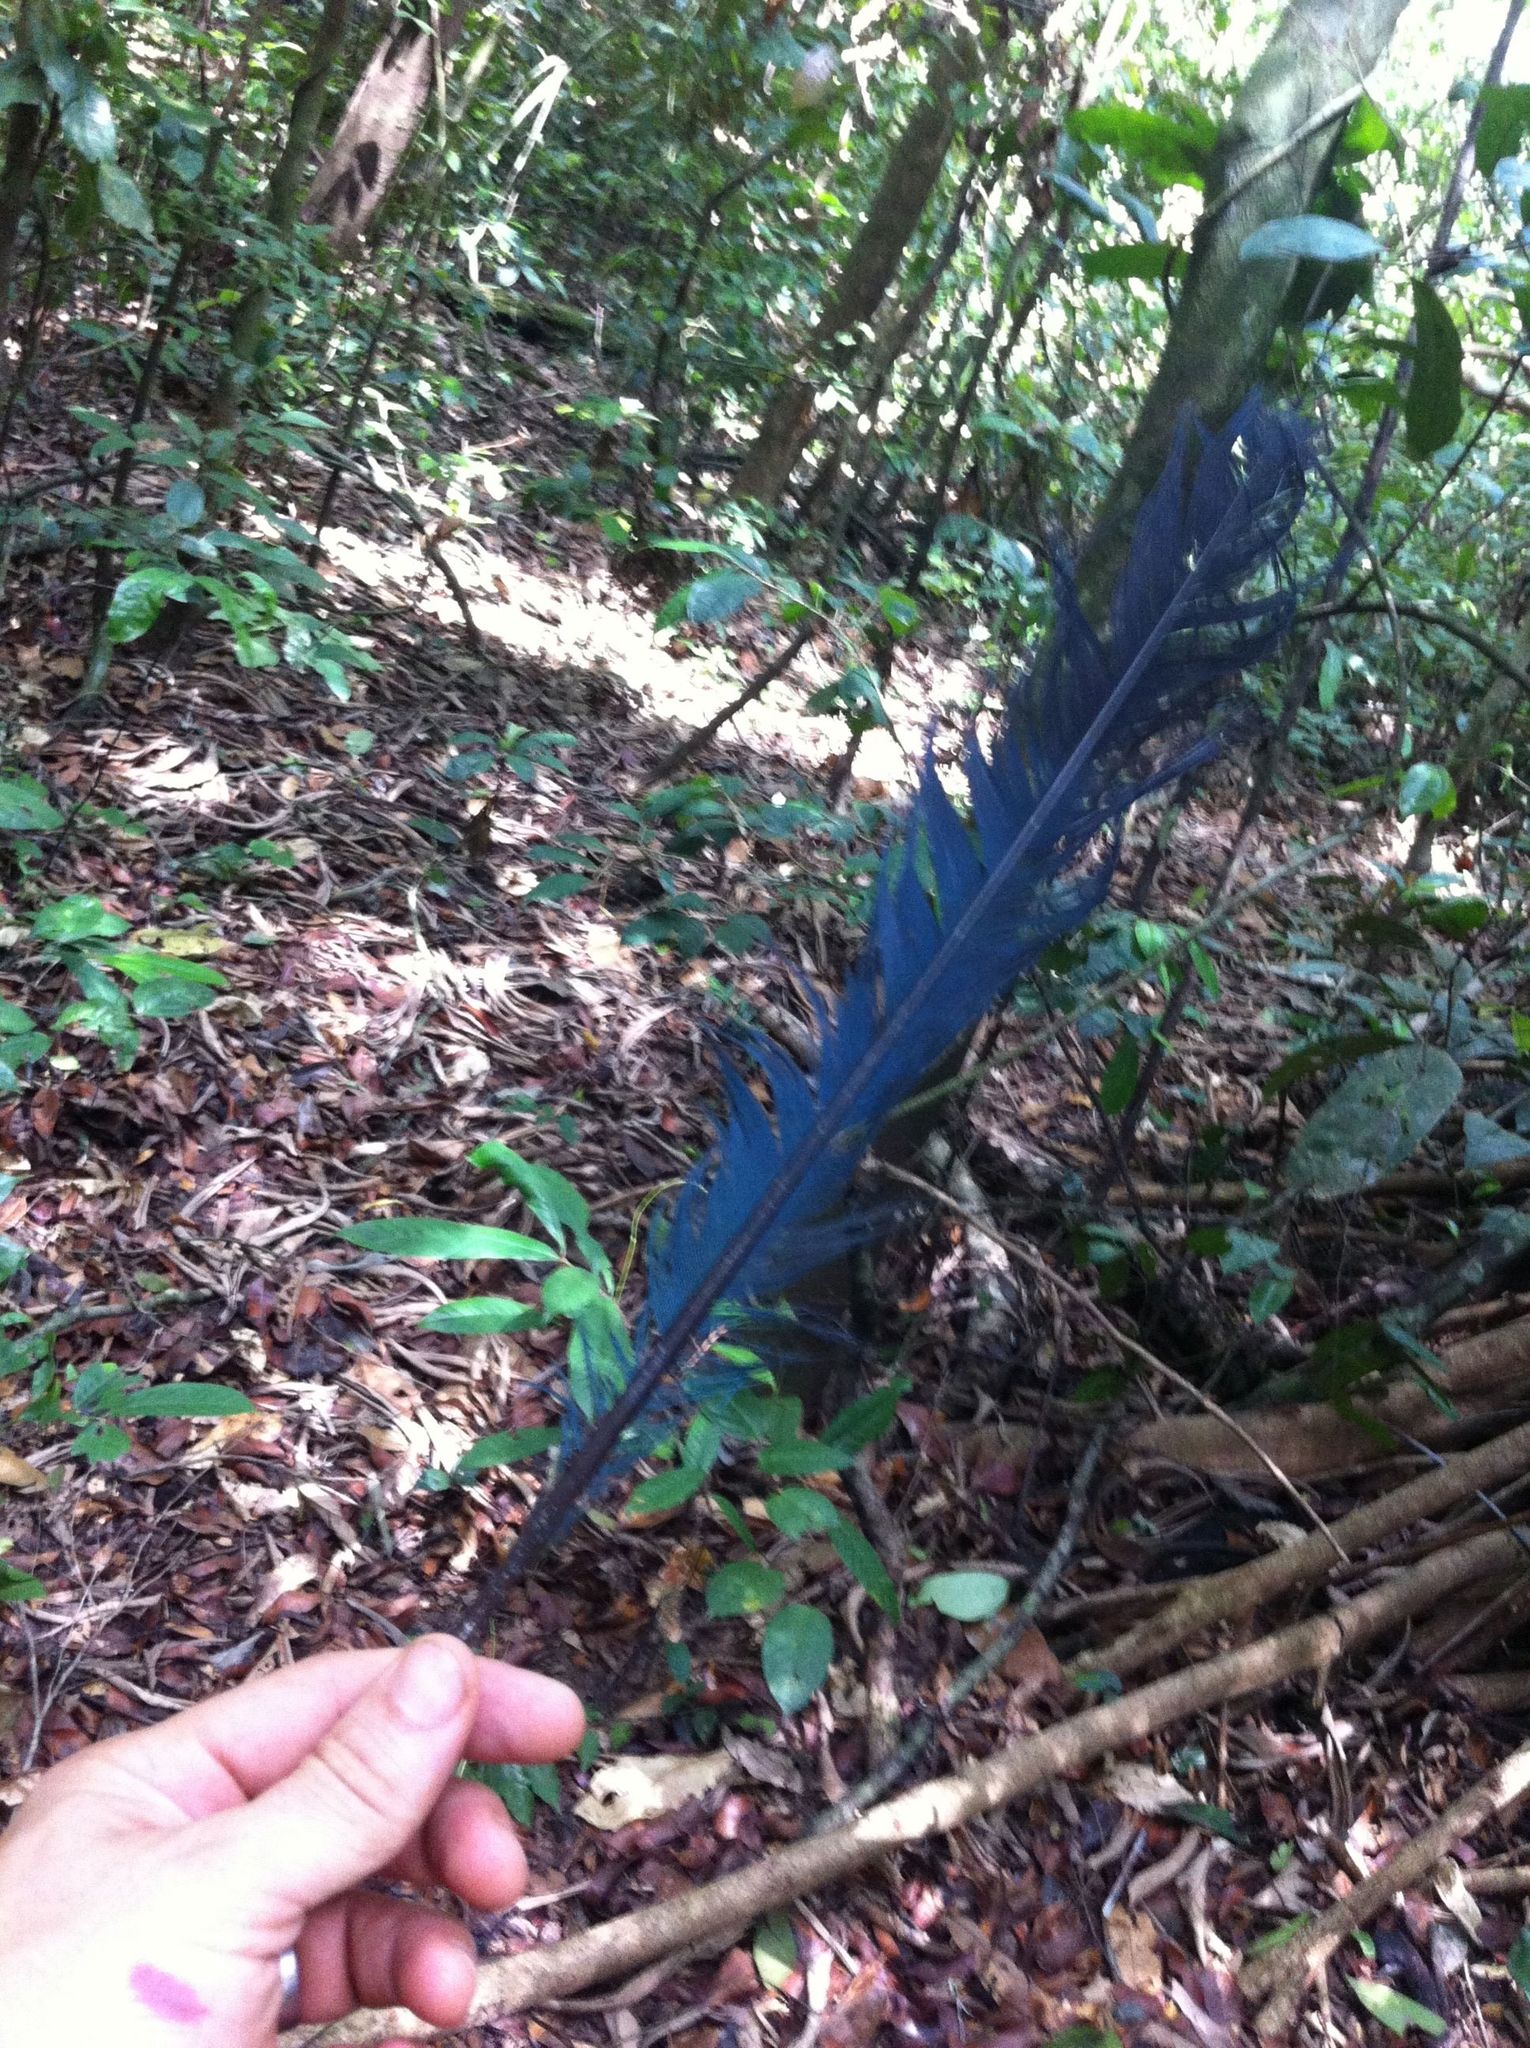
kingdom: Animalia
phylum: Chordata
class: Aves
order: Musophagiformes
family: Musophagidae
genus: Corythaeola
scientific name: Corythaeola cristata
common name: Great blue turaco
